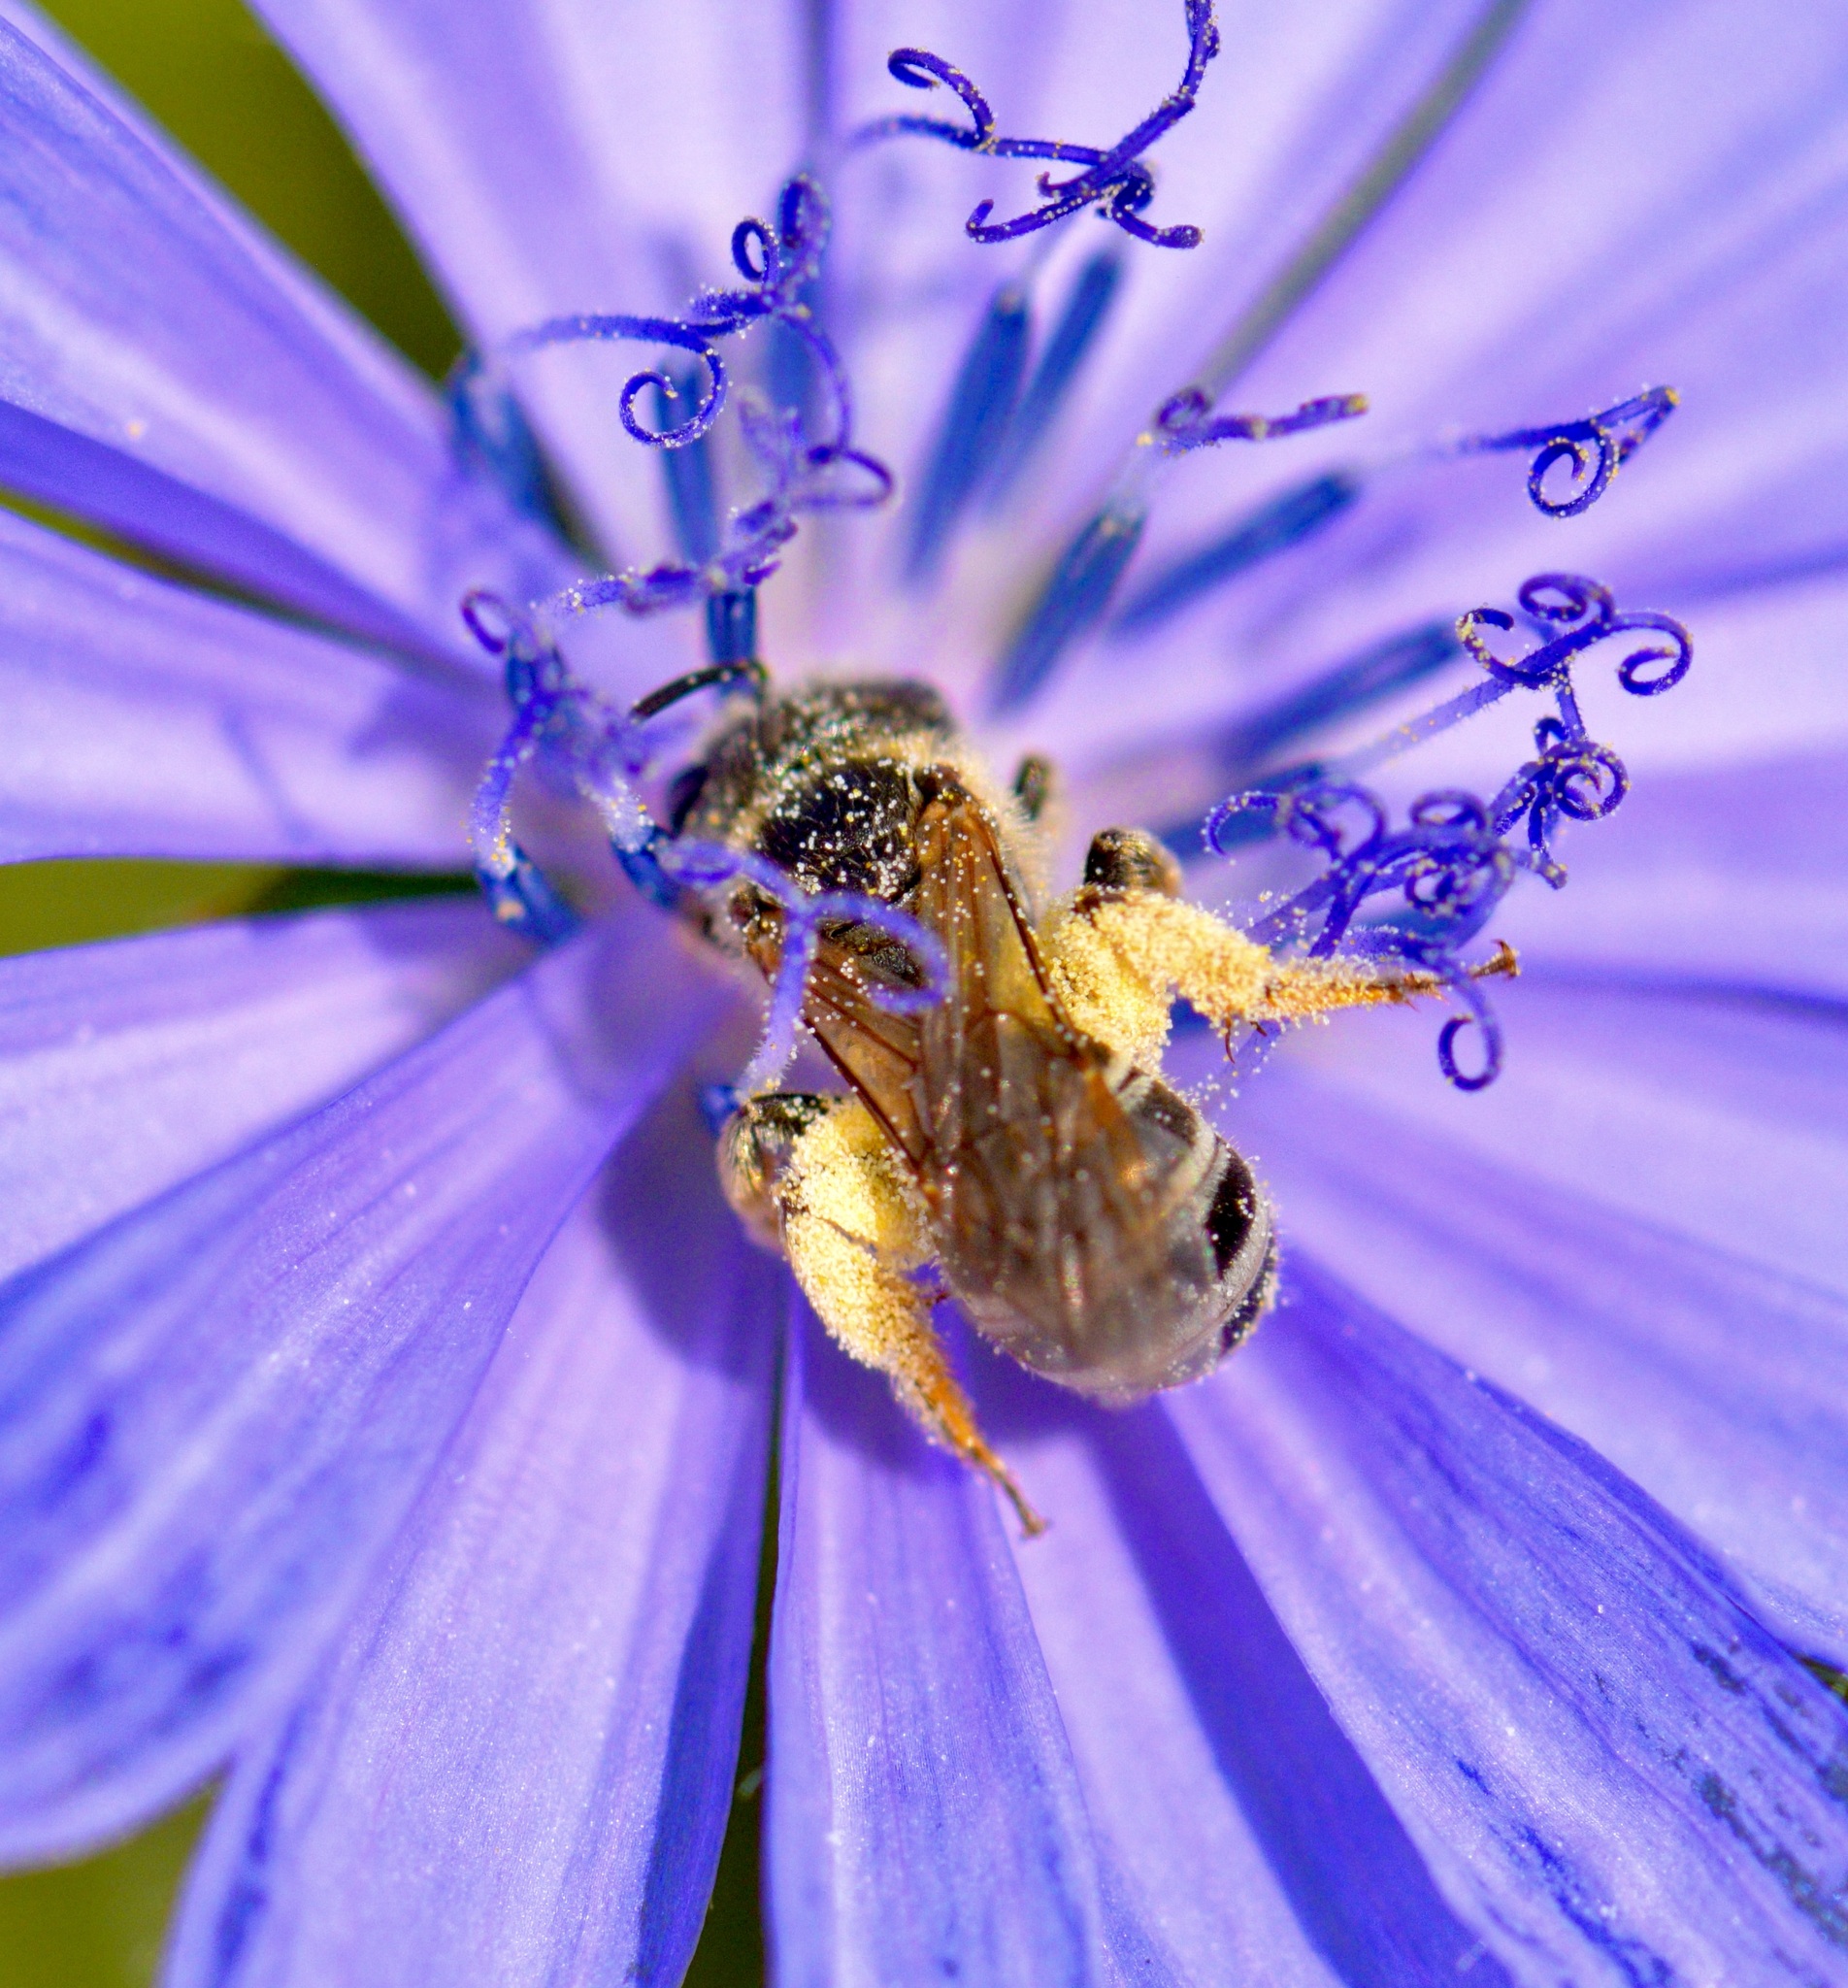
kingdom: Animalia
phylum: Arthropoda
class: Insecta
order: Hymenoptera
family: Halictidae
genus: Halictus
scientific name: Halictus ligatus
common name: Ligated furrow bee
